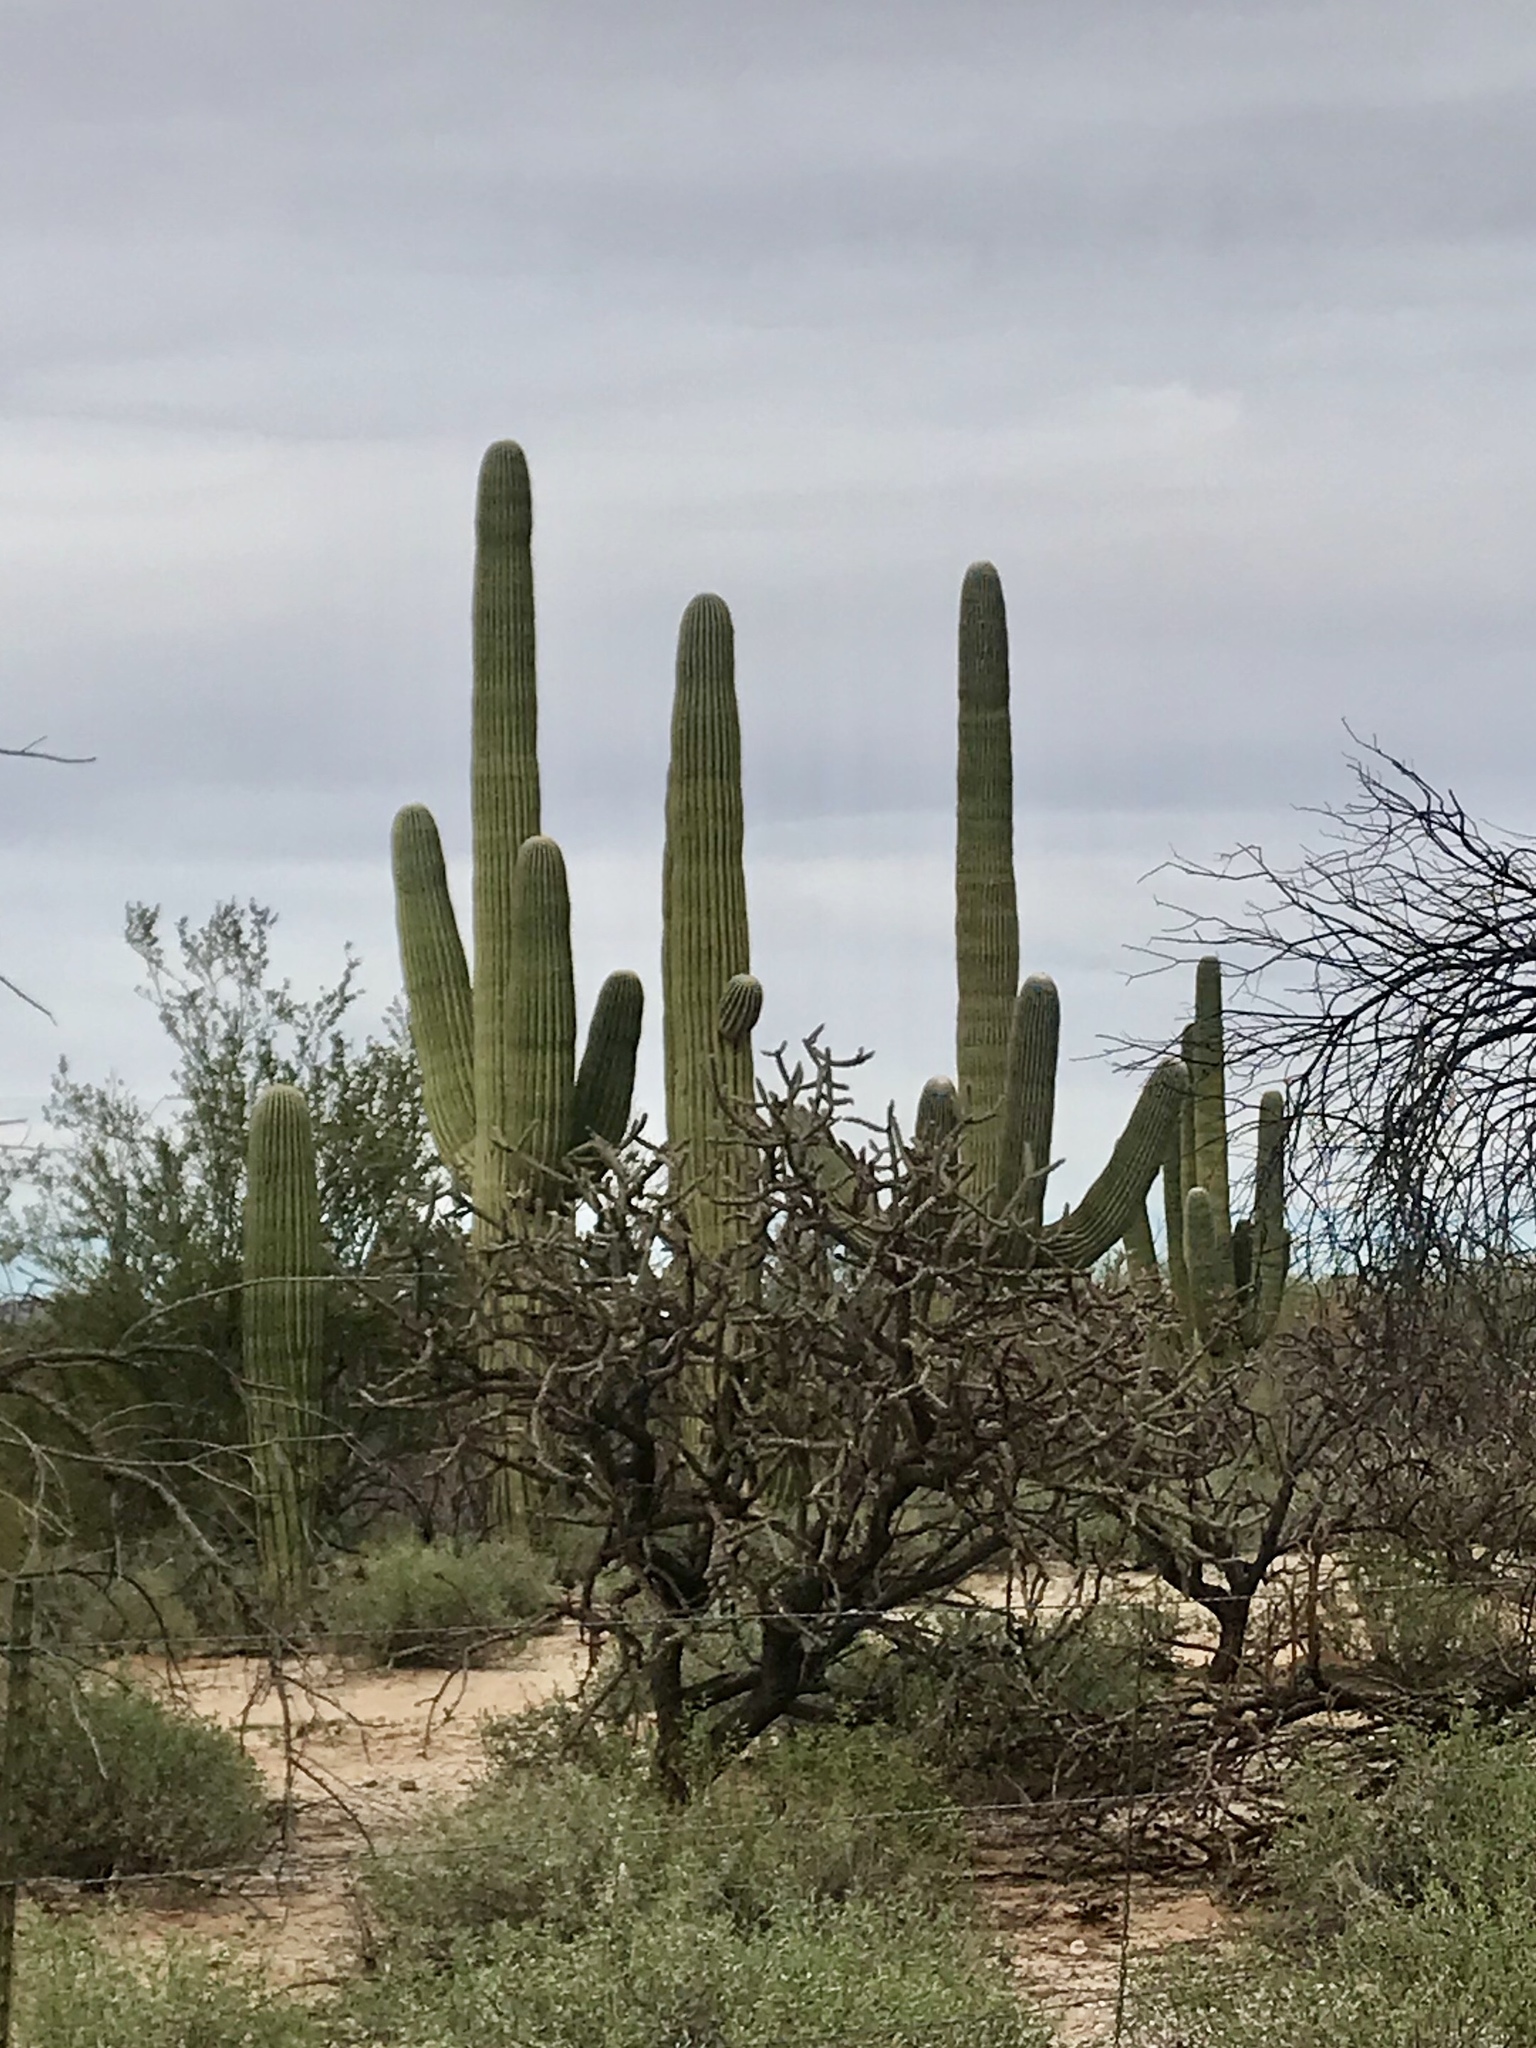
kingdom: Plantae
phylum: Tracheophyta
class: Magnoliopsida
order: Caryophyllales
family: Cactaceae
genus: Carnegiea
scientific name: Carnegiea gigantea
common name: Saguaro
